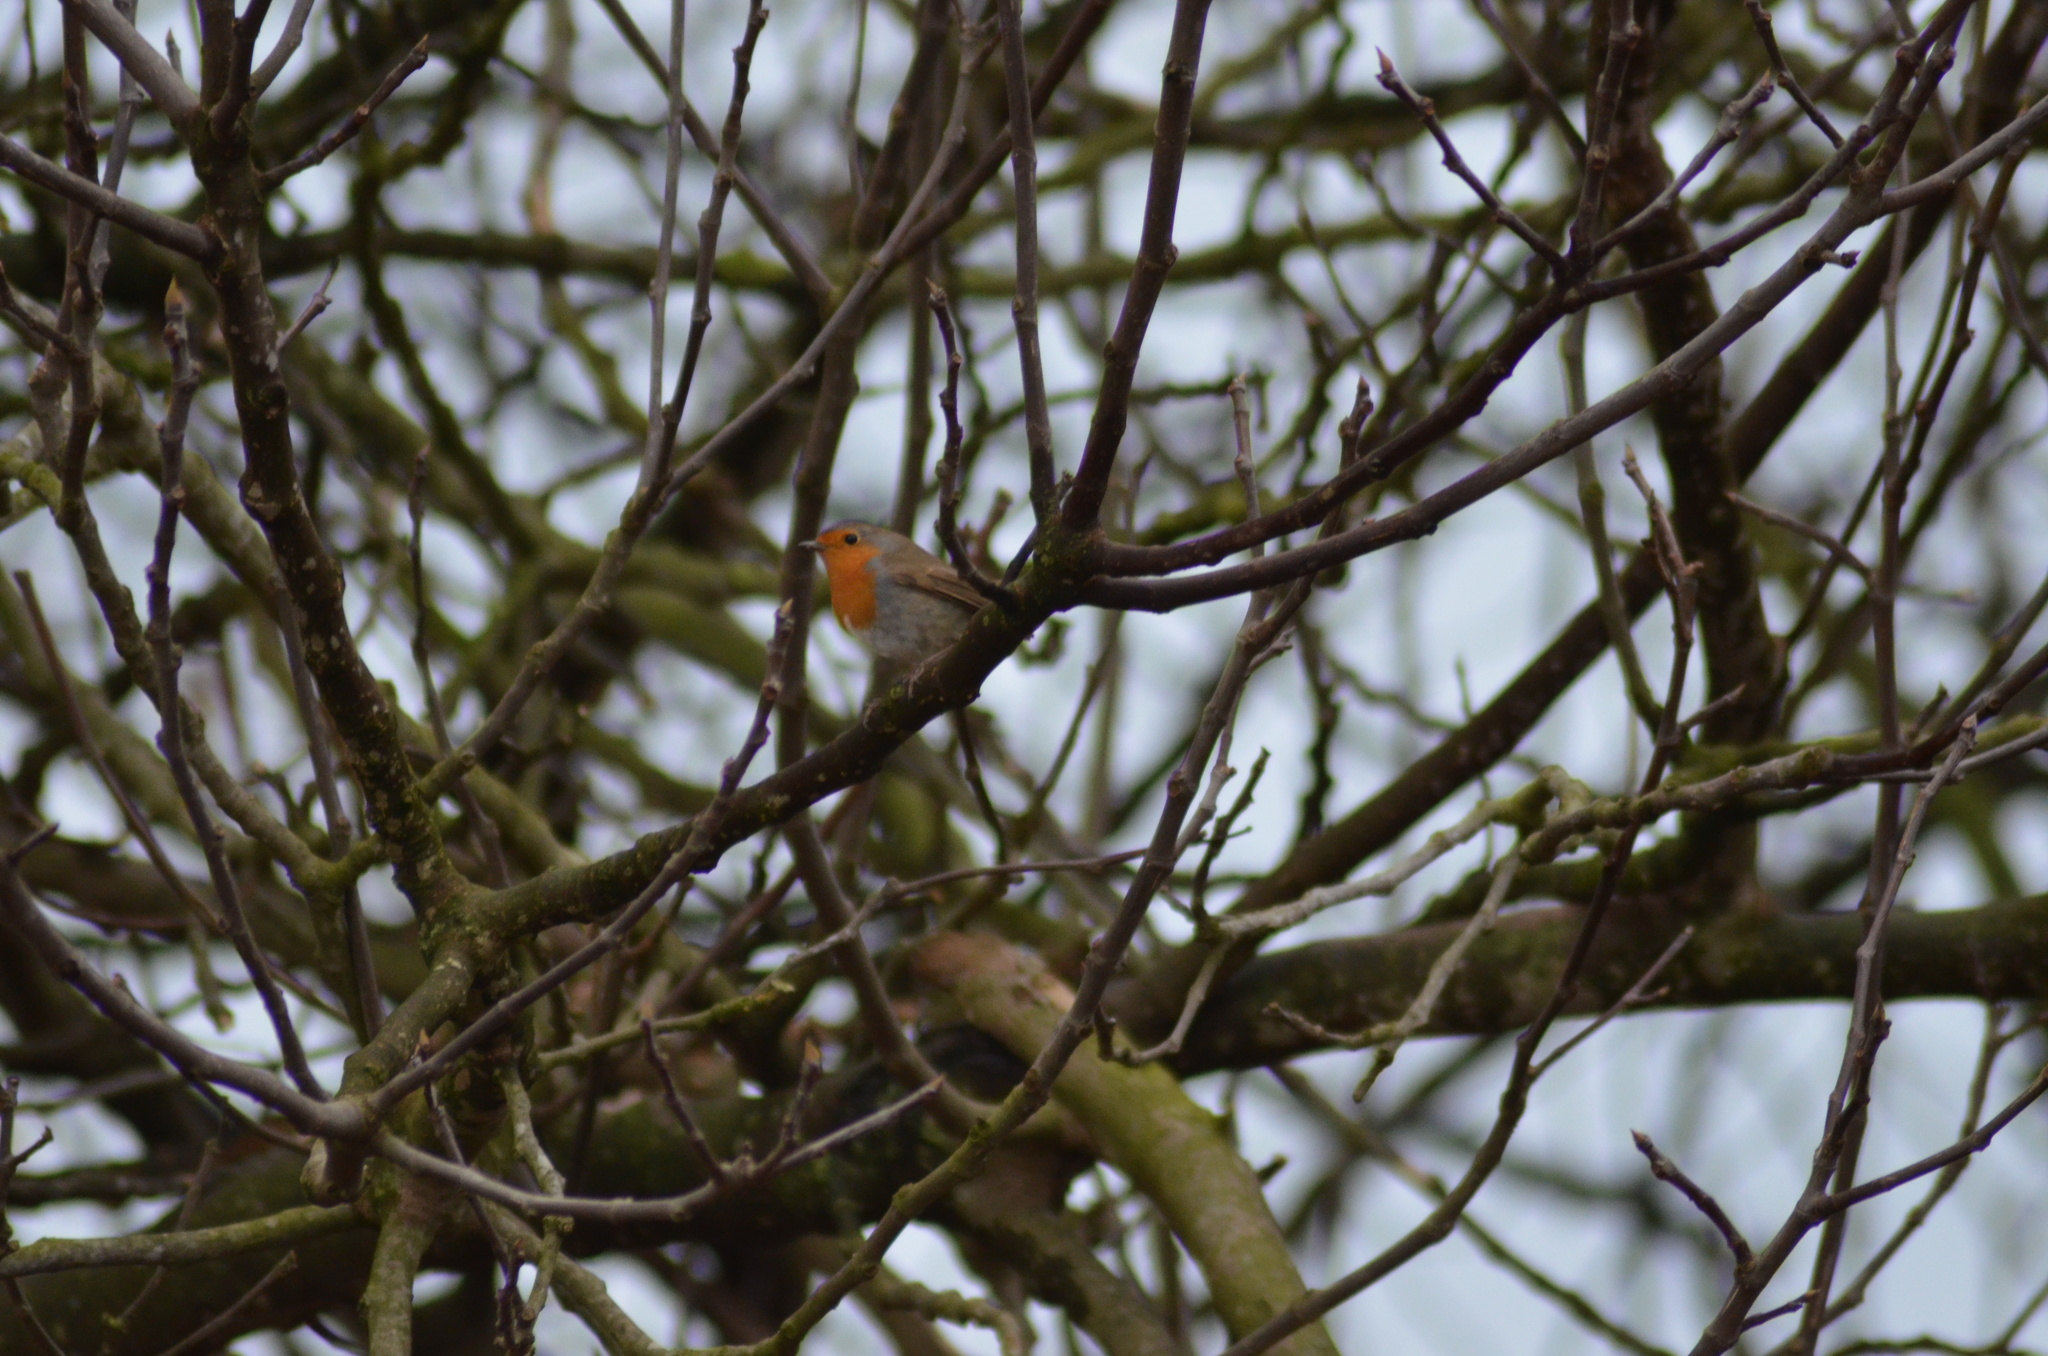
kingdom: Animalia
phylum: Chordata
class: Aves
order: Passeriformes
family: Muscicapidae
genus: Erithacus
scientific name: Erithacus rubecula
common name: European robin
